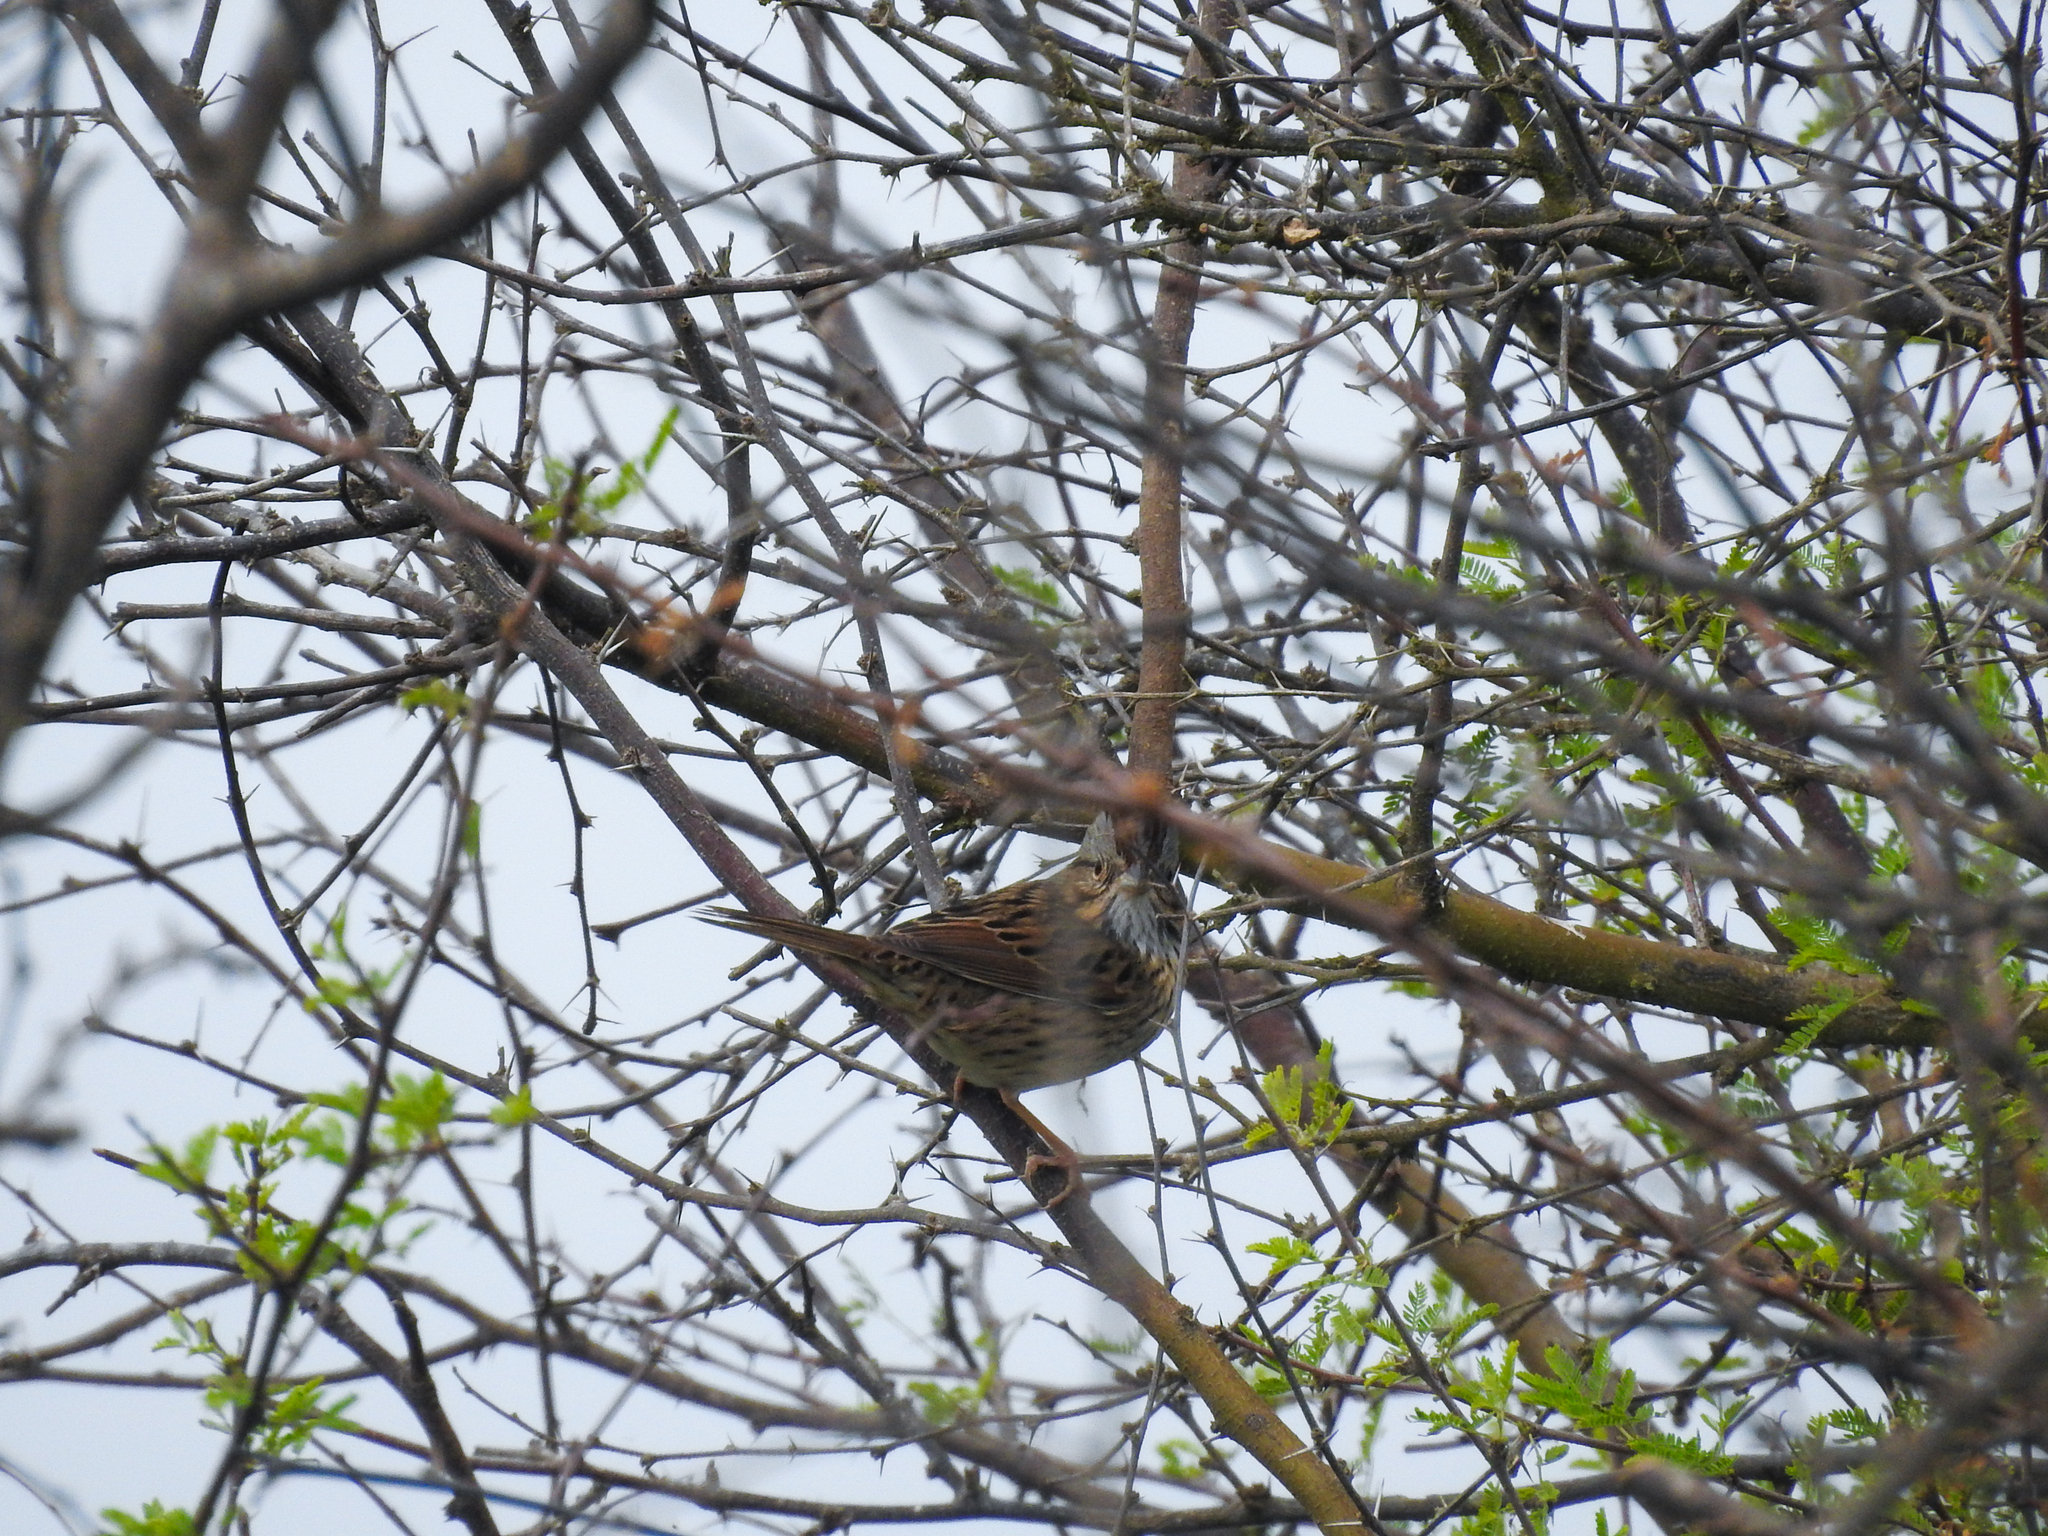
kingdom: Animalia
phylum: Chordata
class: Aves
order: Passeriformes
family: Passerellidae
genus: Melospiza
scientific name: Melospiza lincolnii
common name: Lincoln's sparrow
